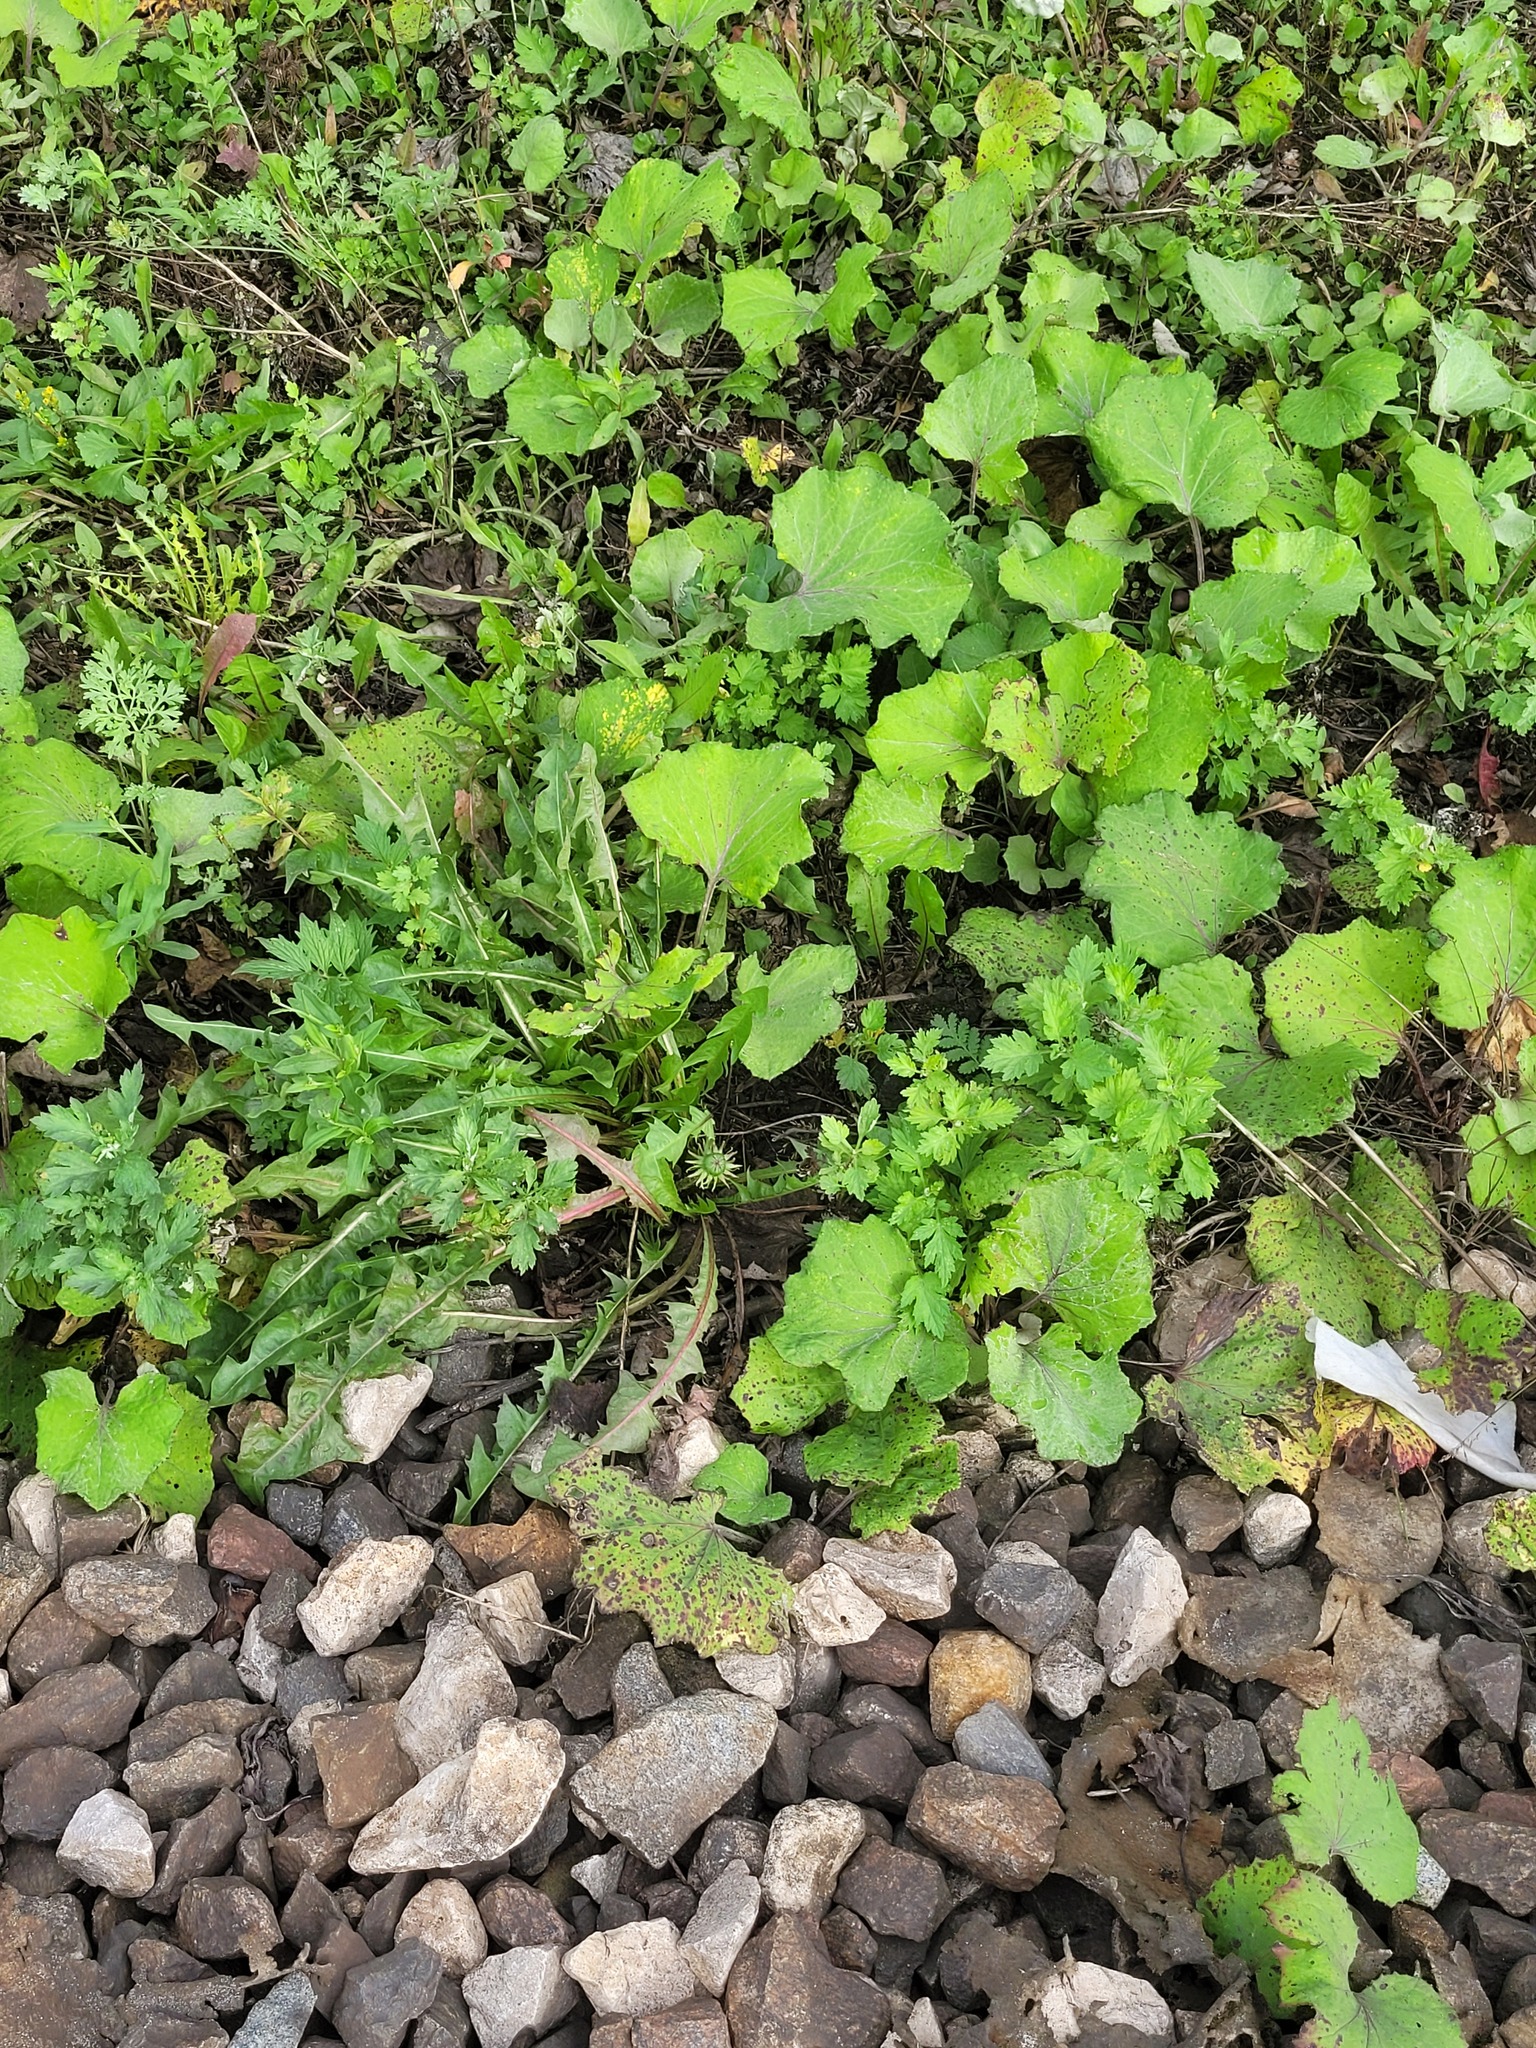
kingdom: Plantae
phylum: Tracheophyta
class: Magnoliopsida
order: Asterales
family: Asteraceae
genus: Taraxacum
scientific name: Taraxacum officinale
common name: Common dandelion
